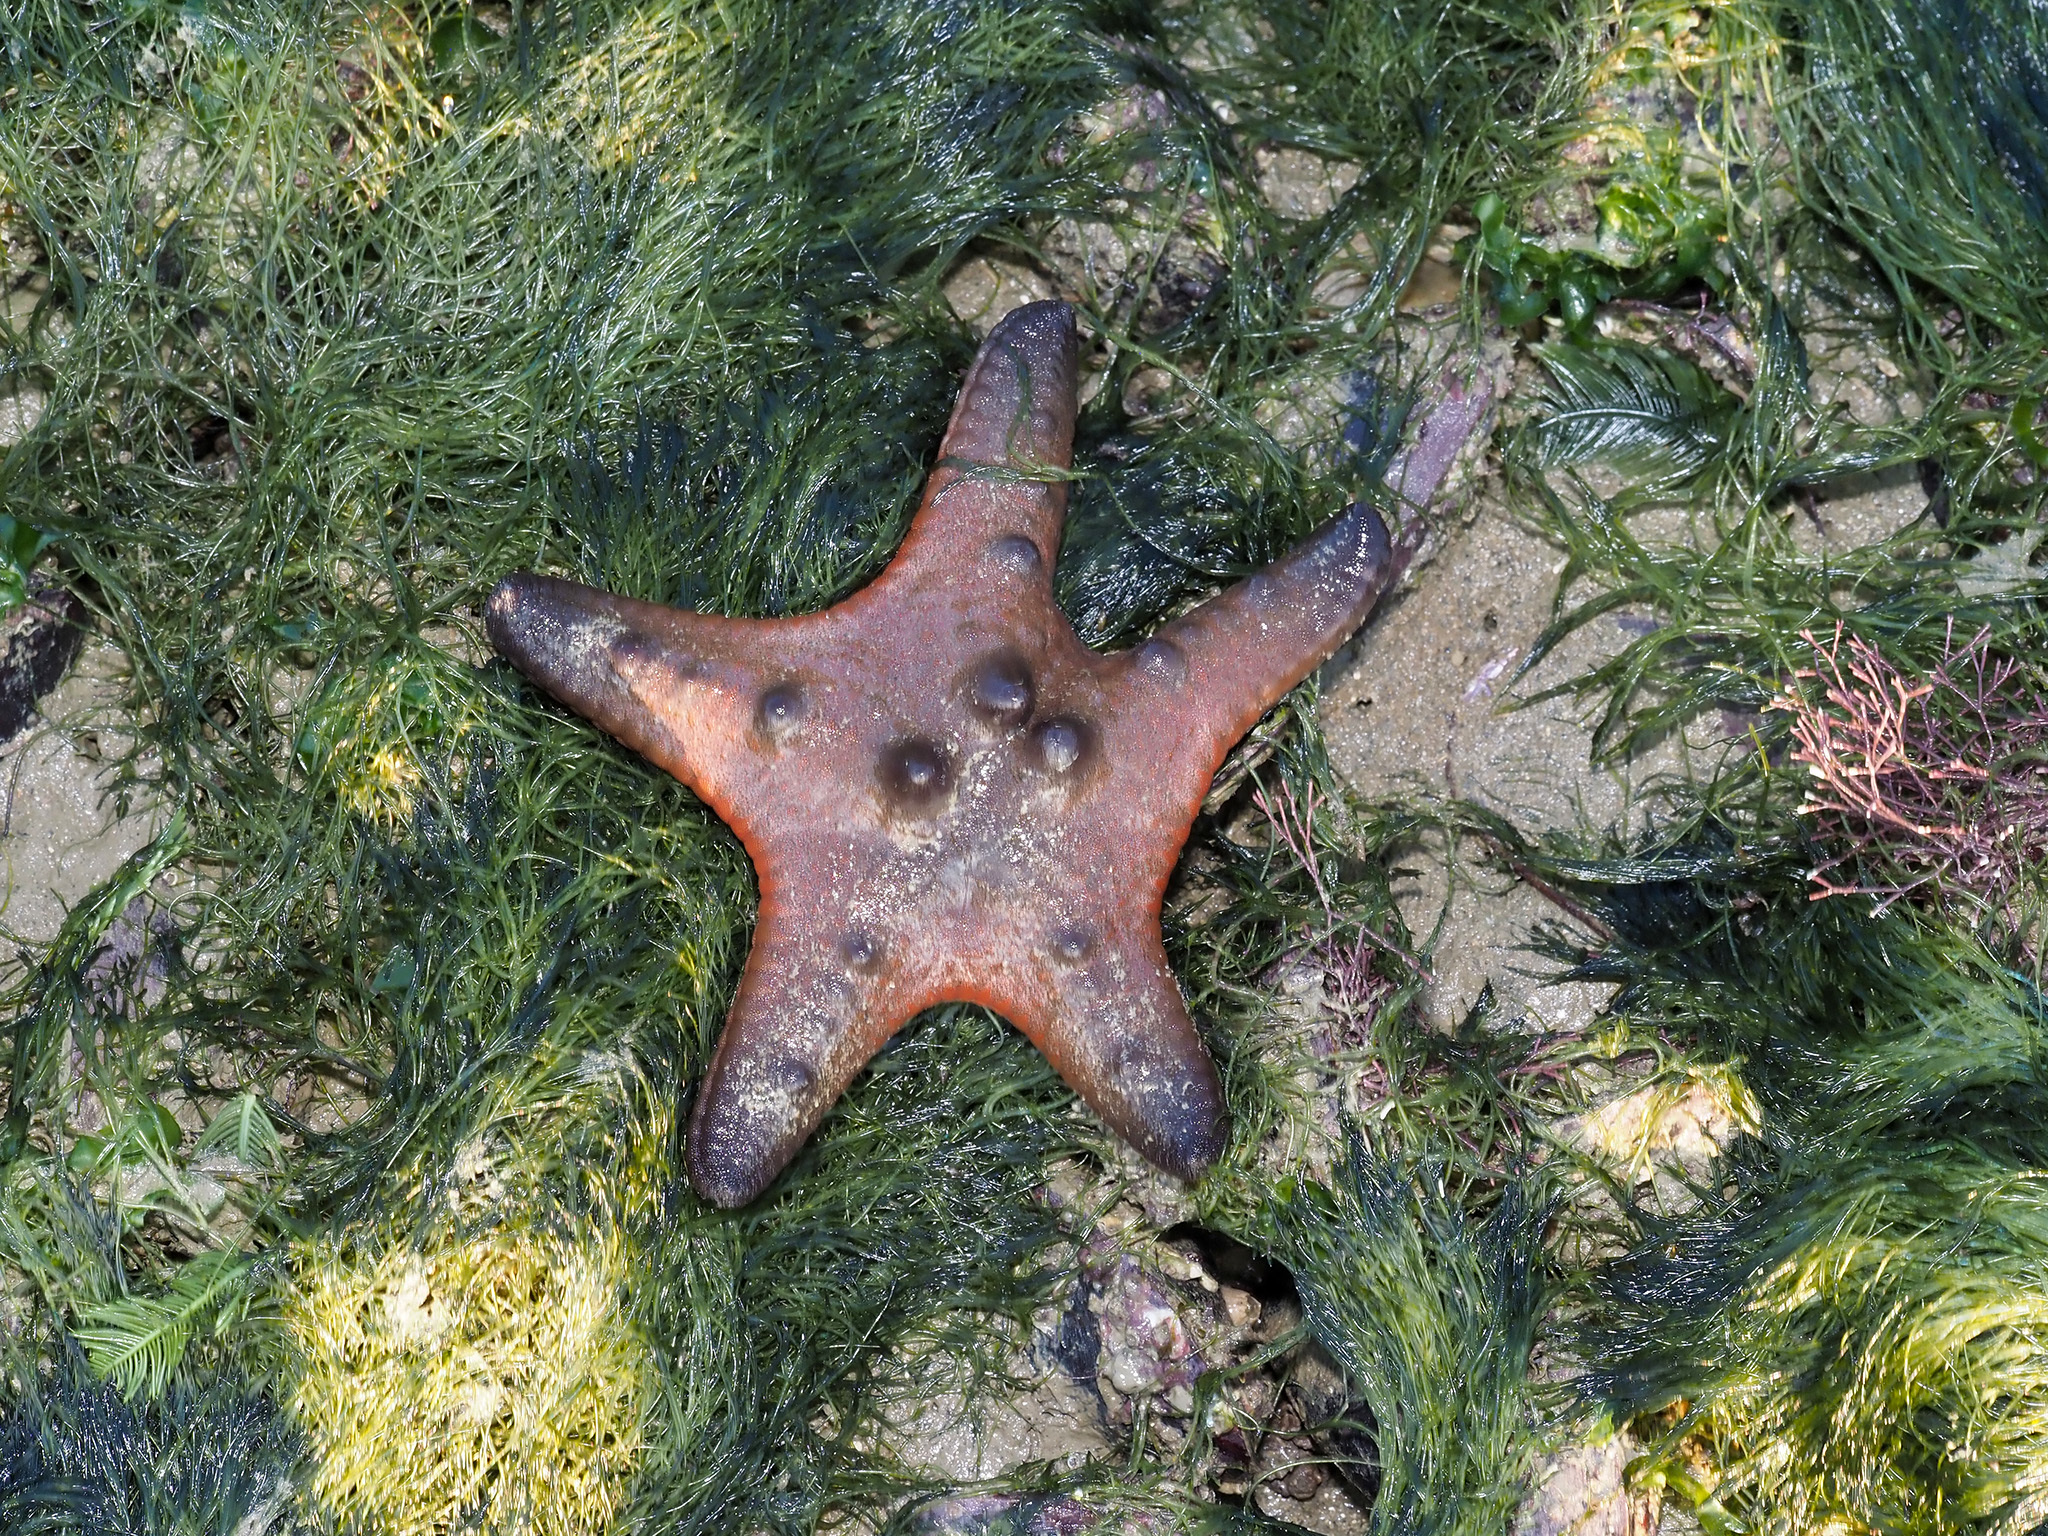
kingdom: Animalia
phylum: Echinodermata
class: Asteroidea
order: Valvatida
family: Oreasteridae
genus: Protoreaster
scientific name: Protoreaster nodosus
